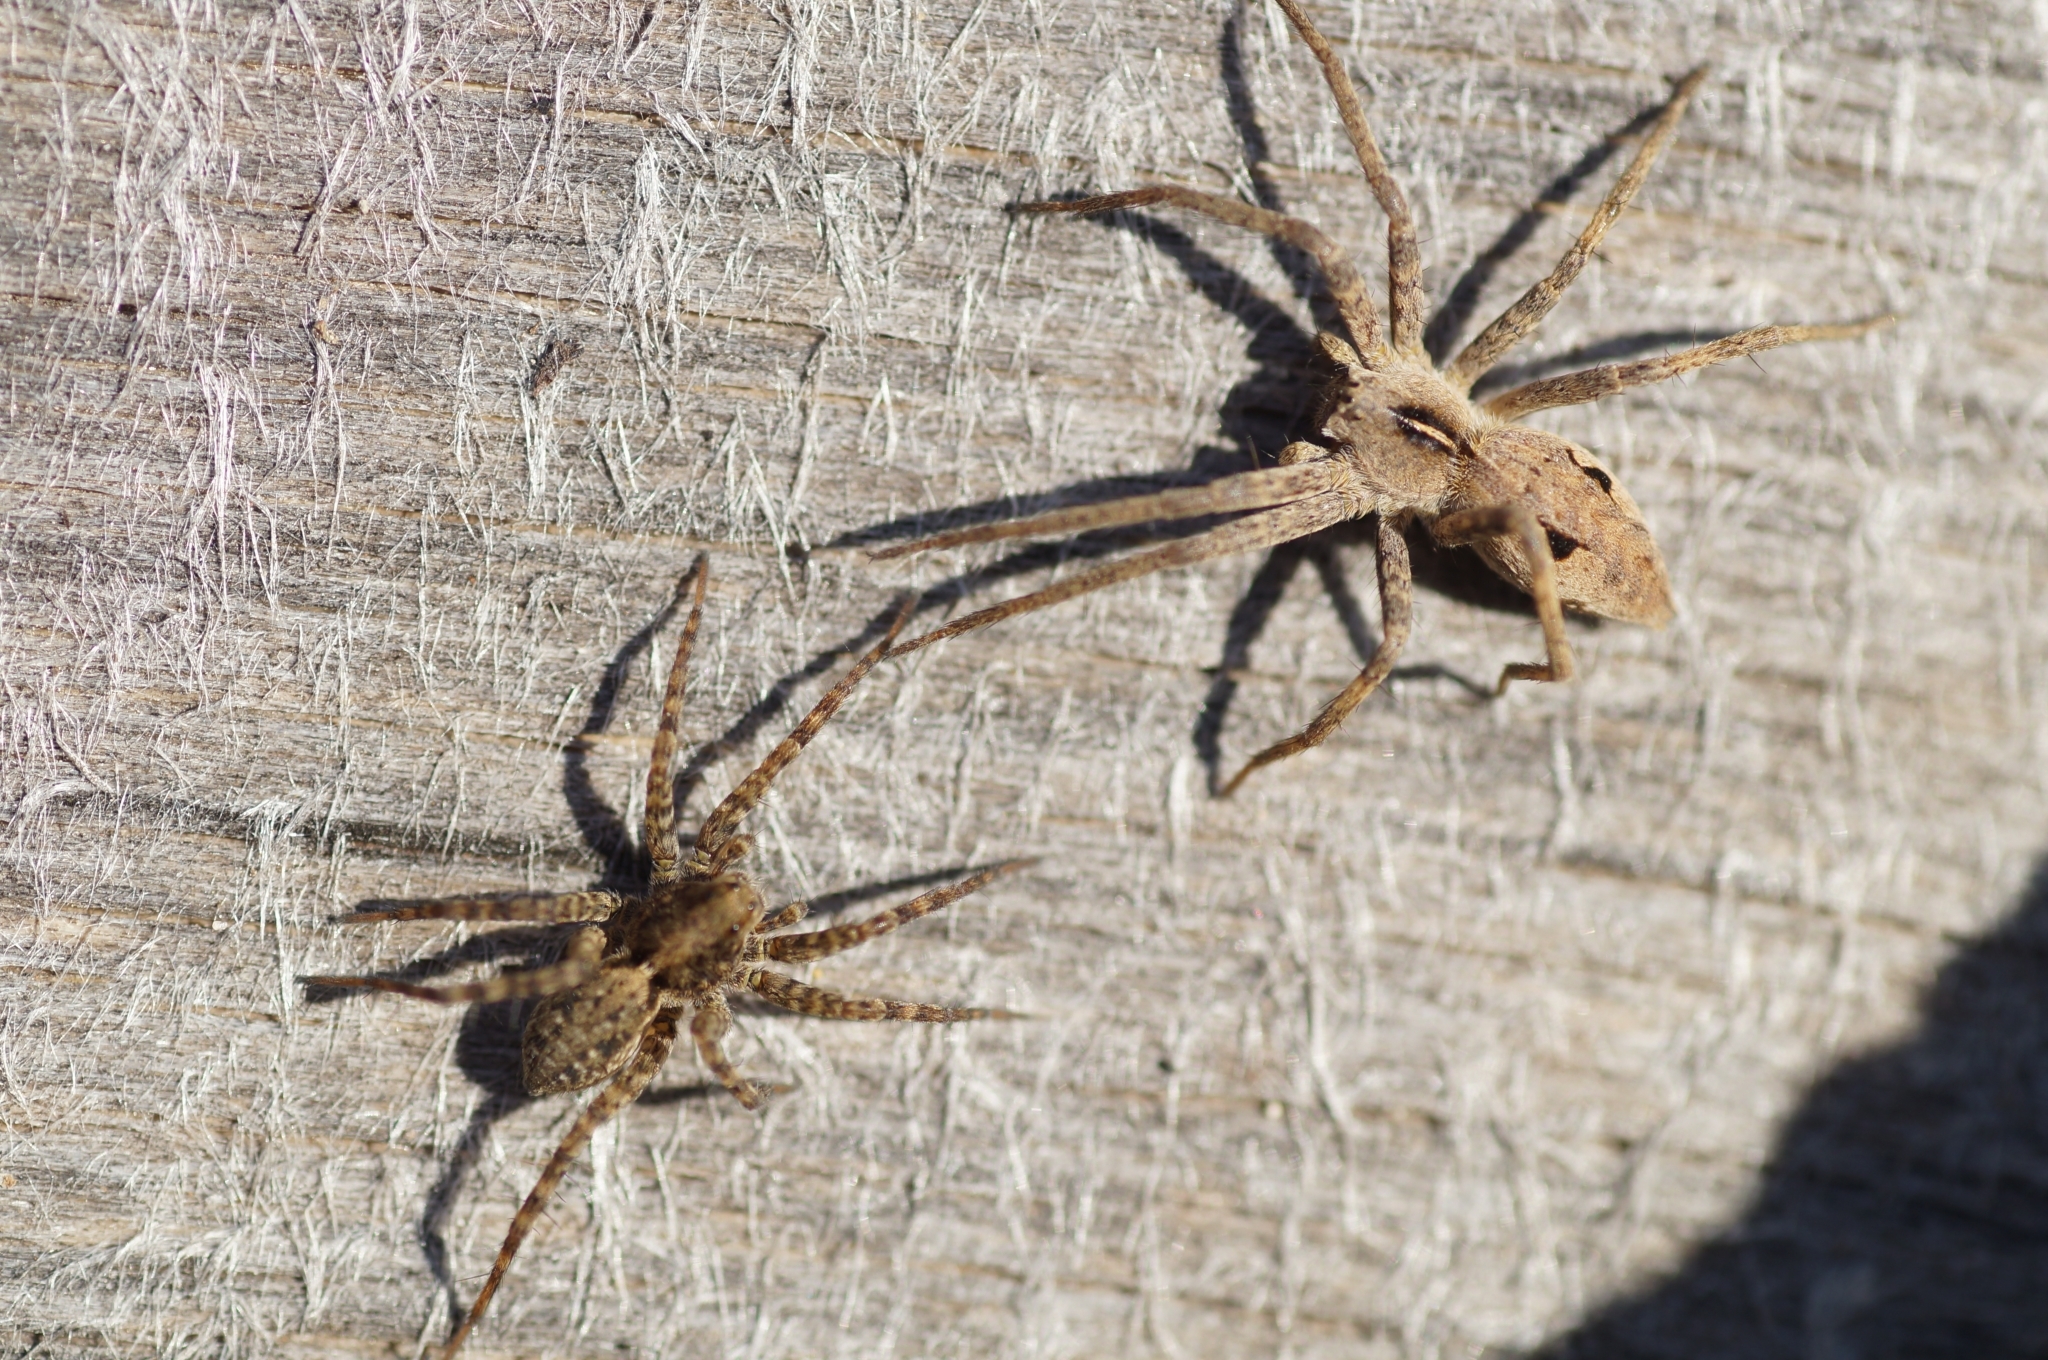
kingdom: Animalia
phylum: Arthropoda
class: Arachnida
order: Araneae
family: Pisauridae
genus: Pisaura
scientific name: Pisaura mirabilis
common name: Tent spider
